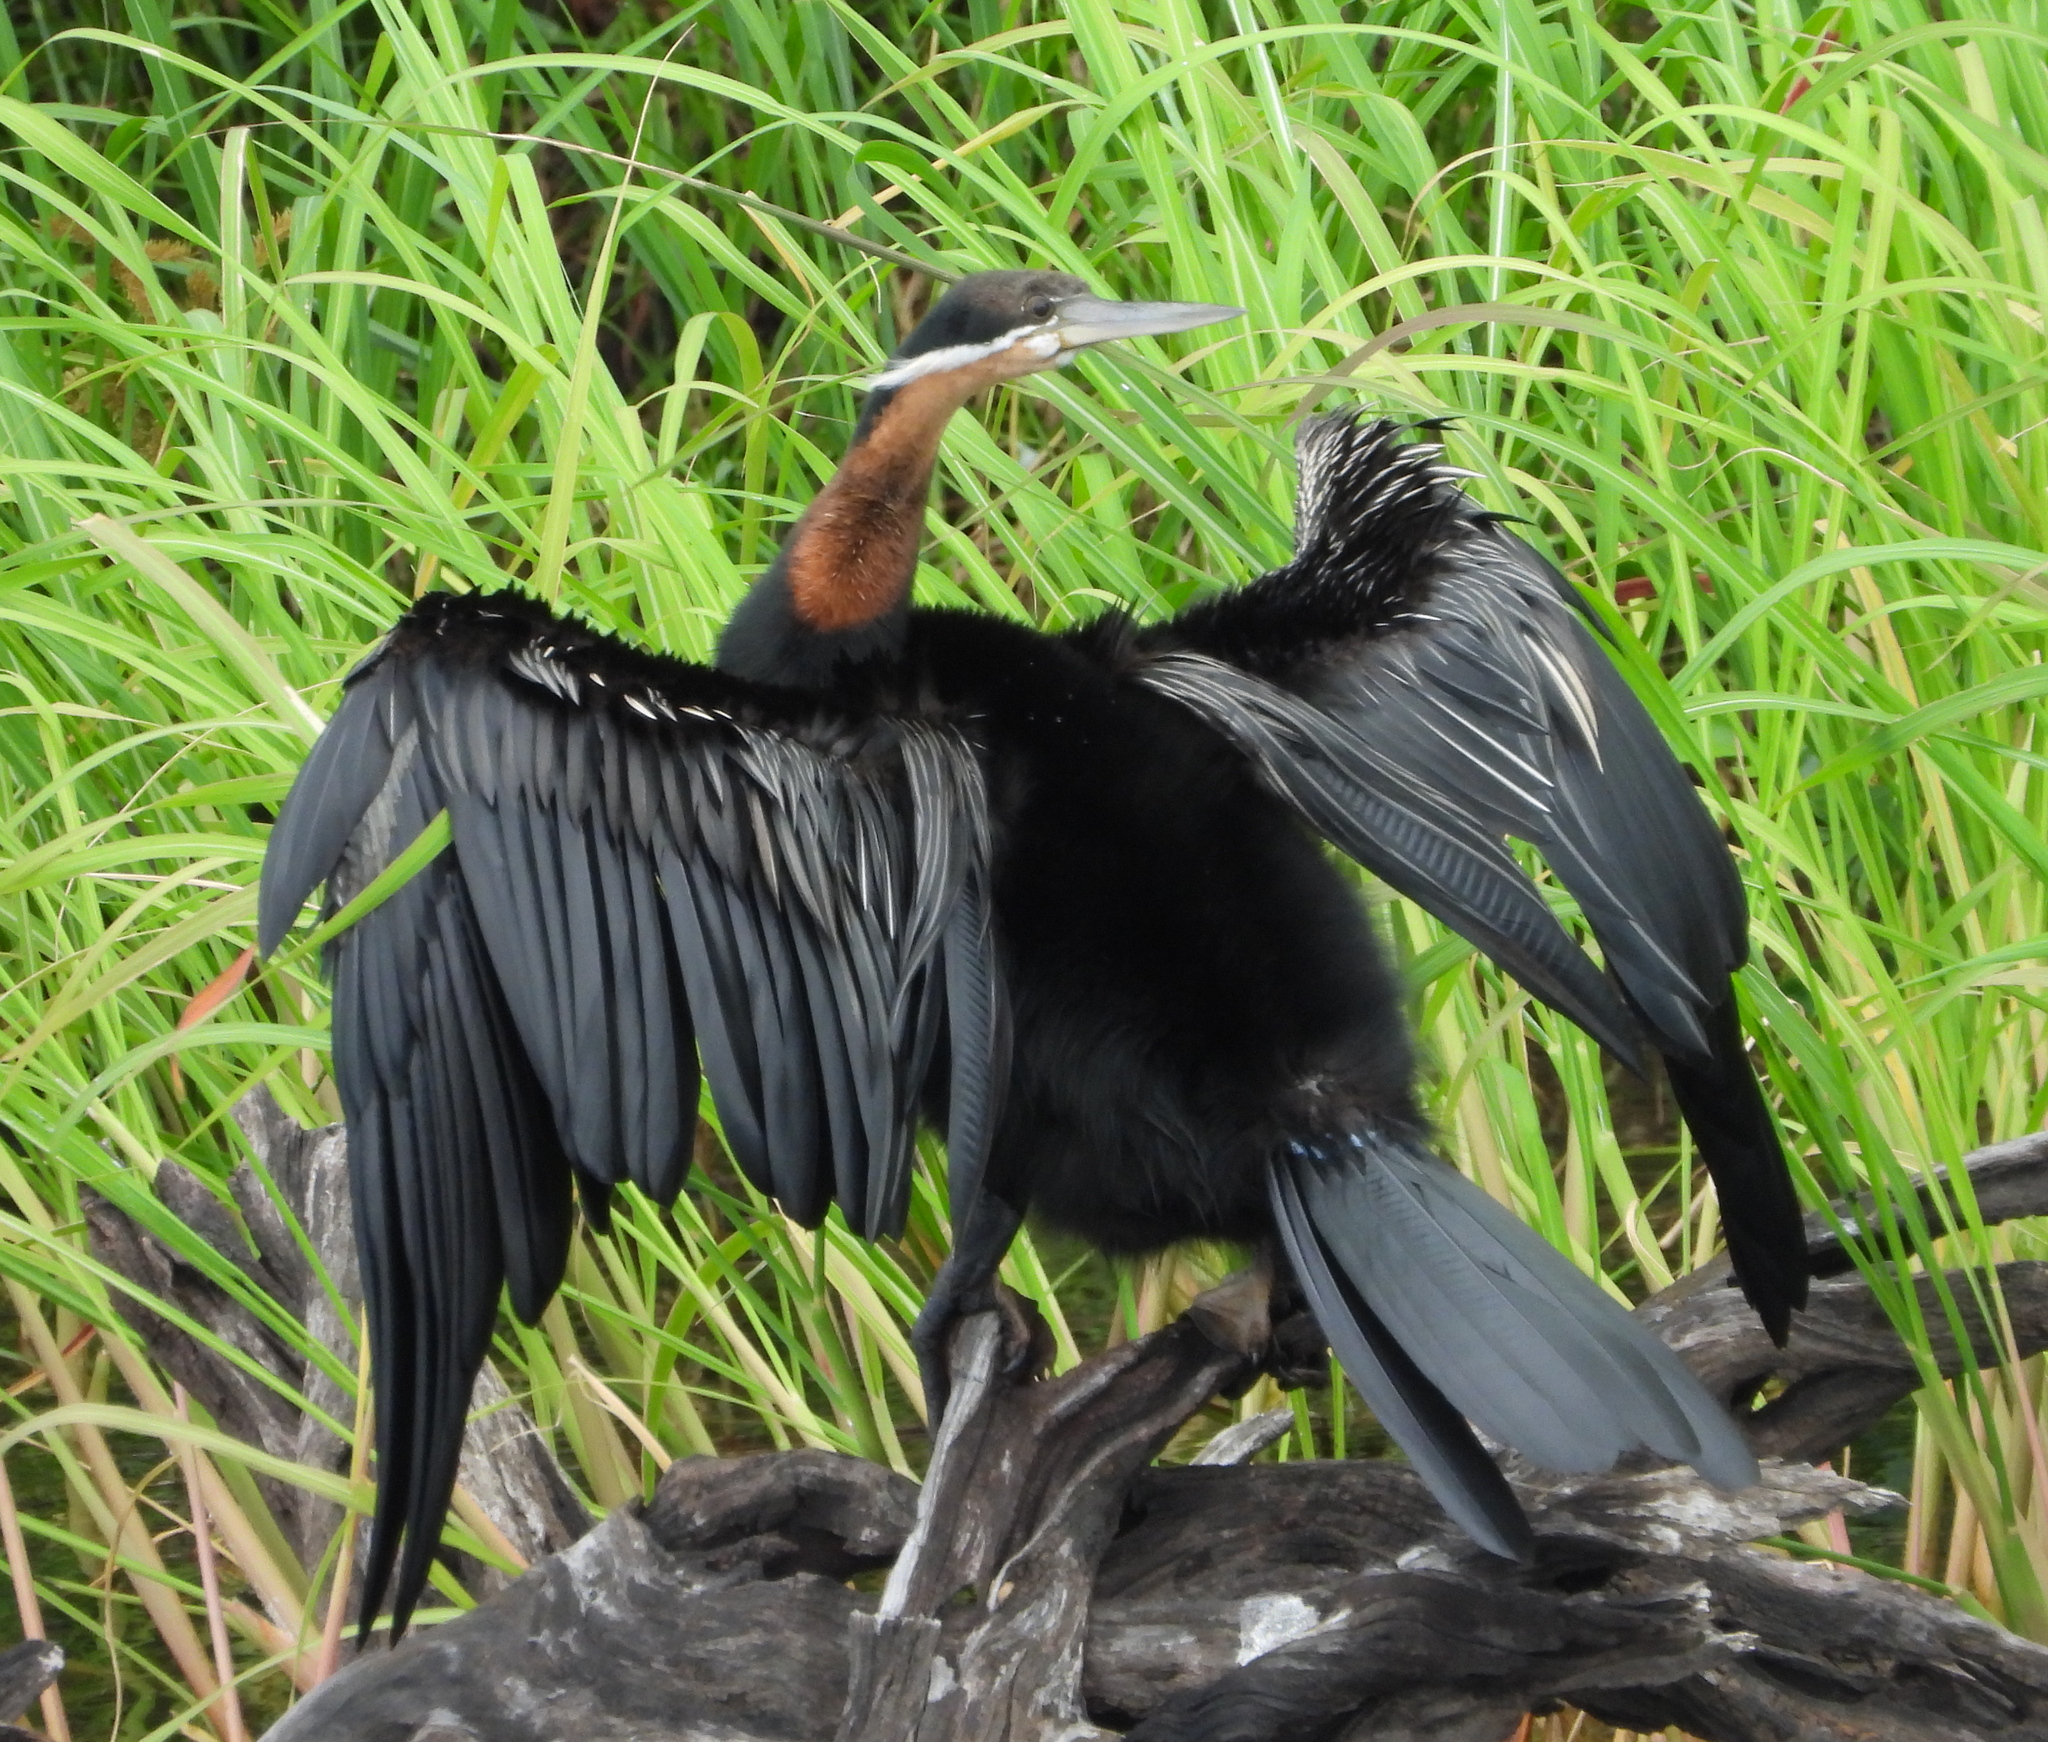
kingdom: Animalia
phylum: Chordata
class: Aves
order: Suliformes
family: Anhingidae
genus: Anhinga
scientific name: Anhinga rufa
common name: African darter
